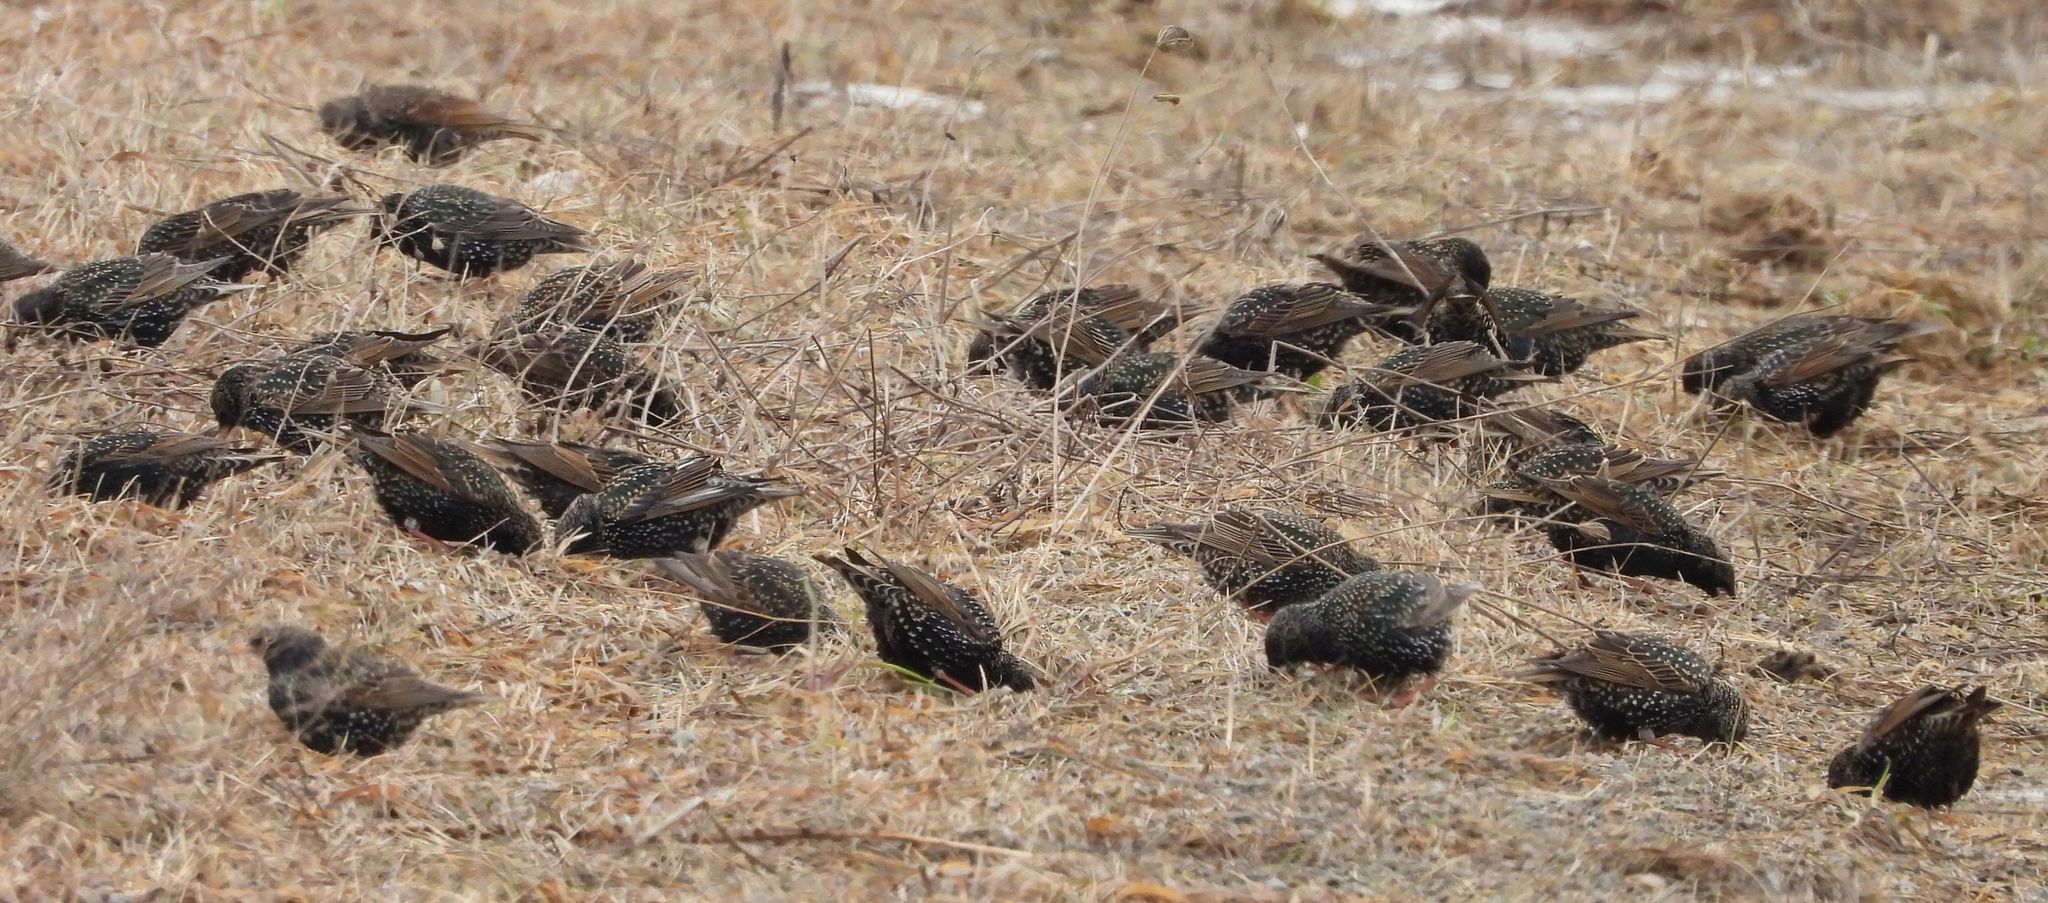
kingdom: Animalia
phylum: Chordata
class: Aves
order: Passeriformes
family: Sturnidae
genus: Sturnus
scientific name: Sturnus vulgaris
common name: Common starling
